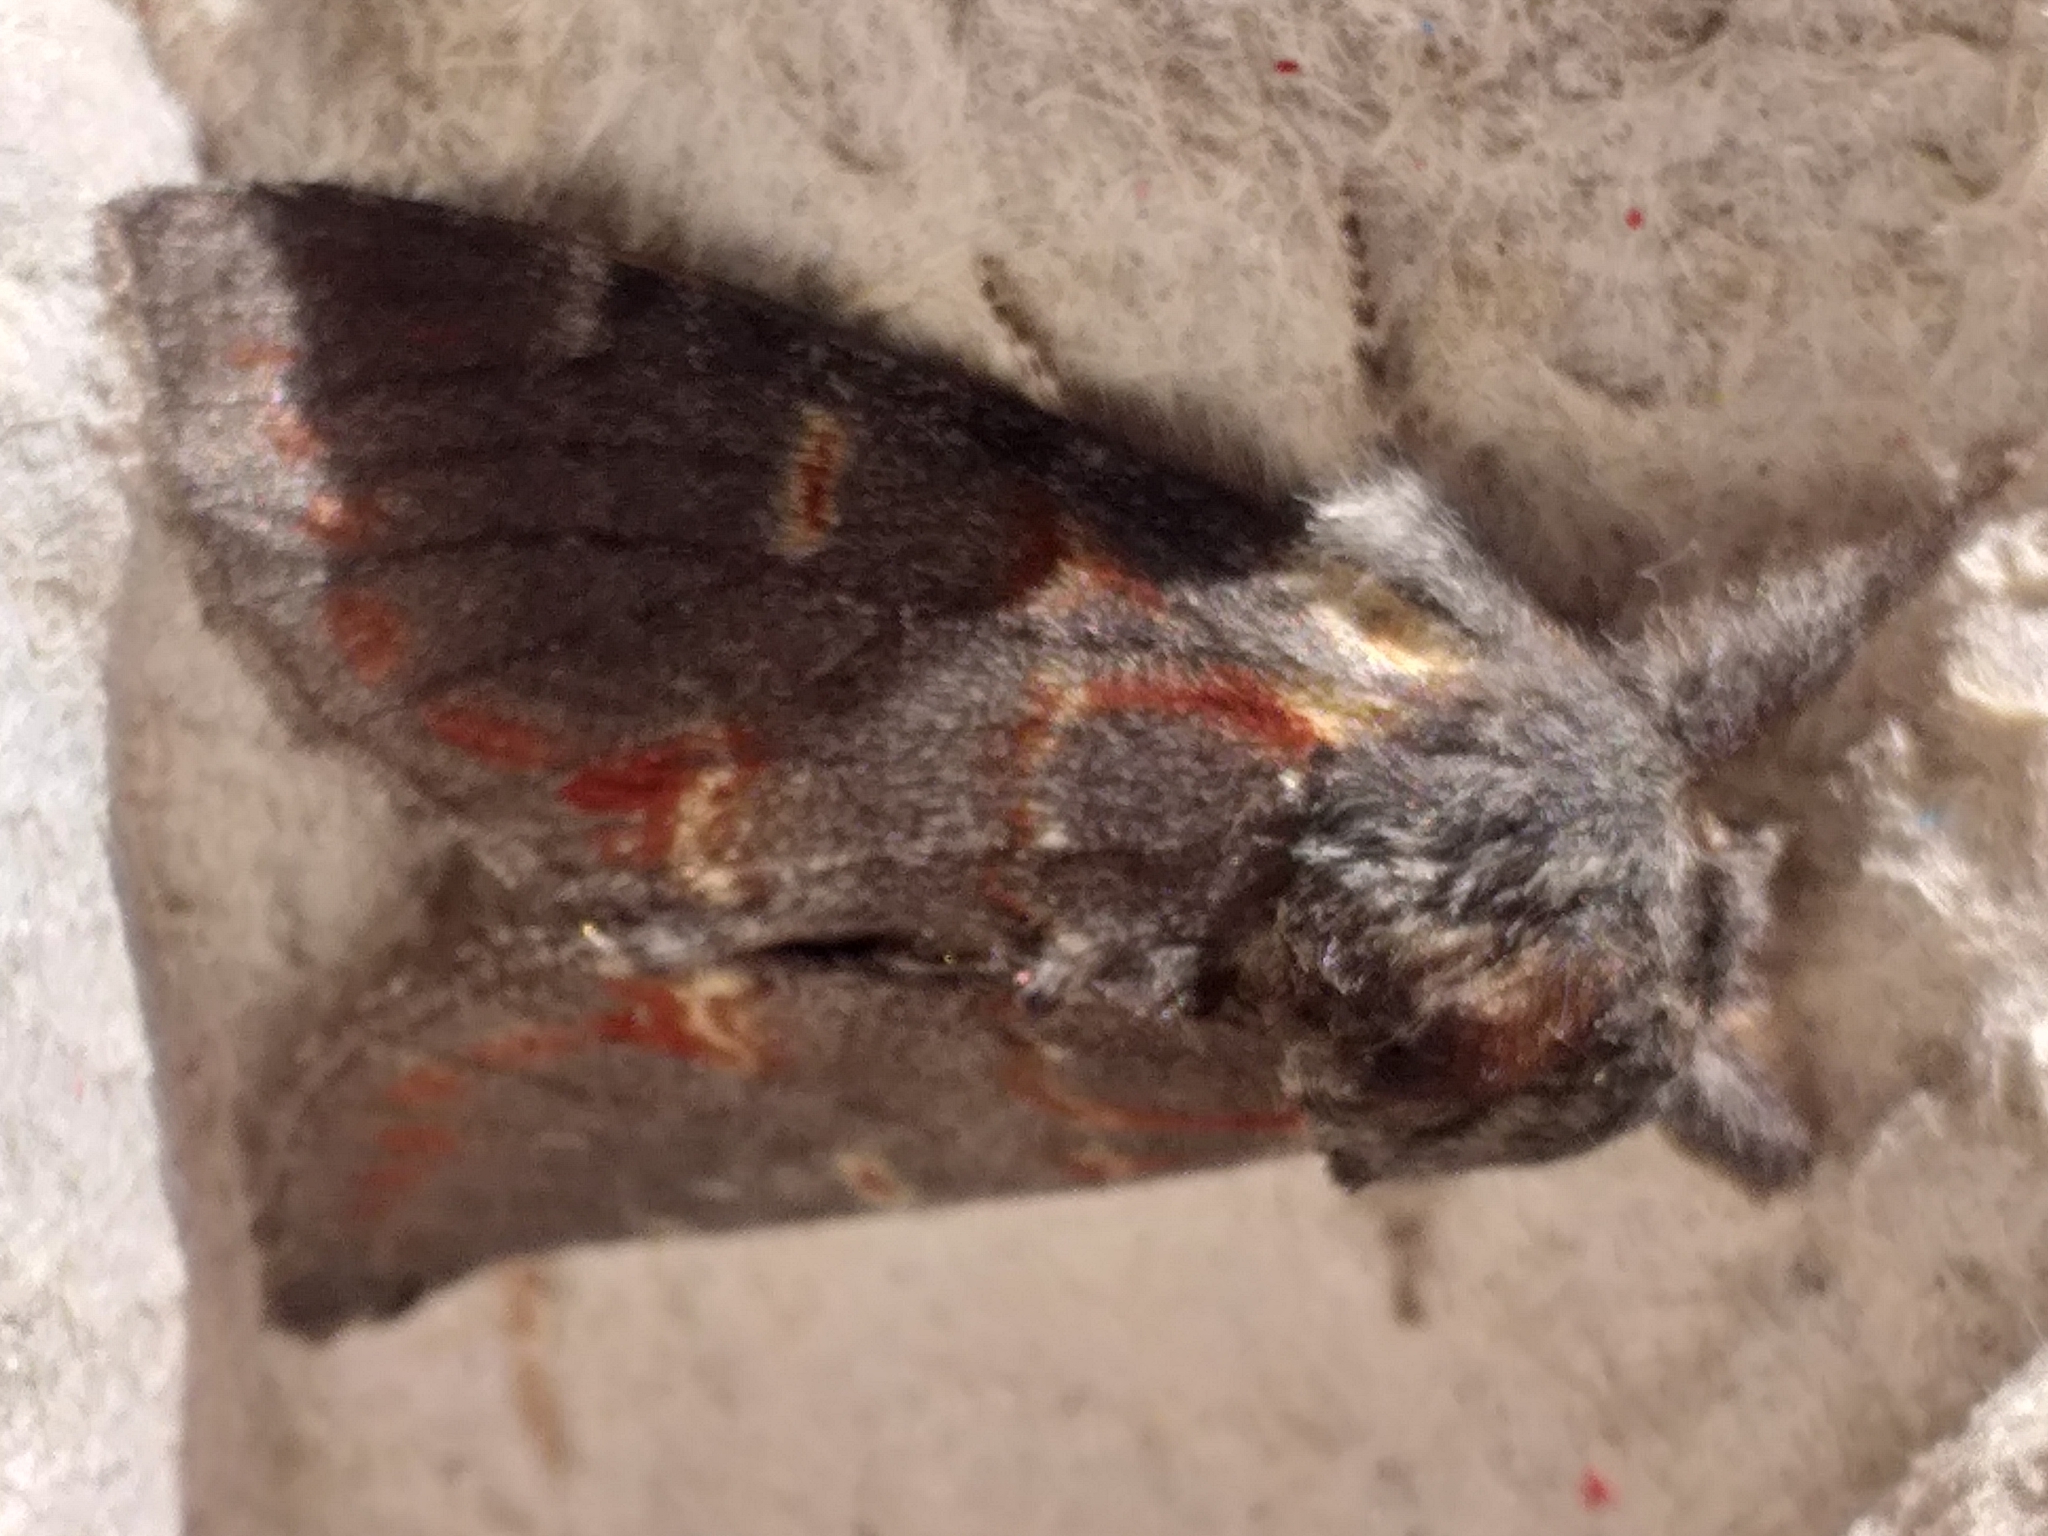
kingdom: Animalia
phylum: Arthropoda
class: Insecta
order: Lepidoptera
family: Notodontidae
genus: Notodonta
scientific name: Notodonta dromedarius
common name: Iron prominent
